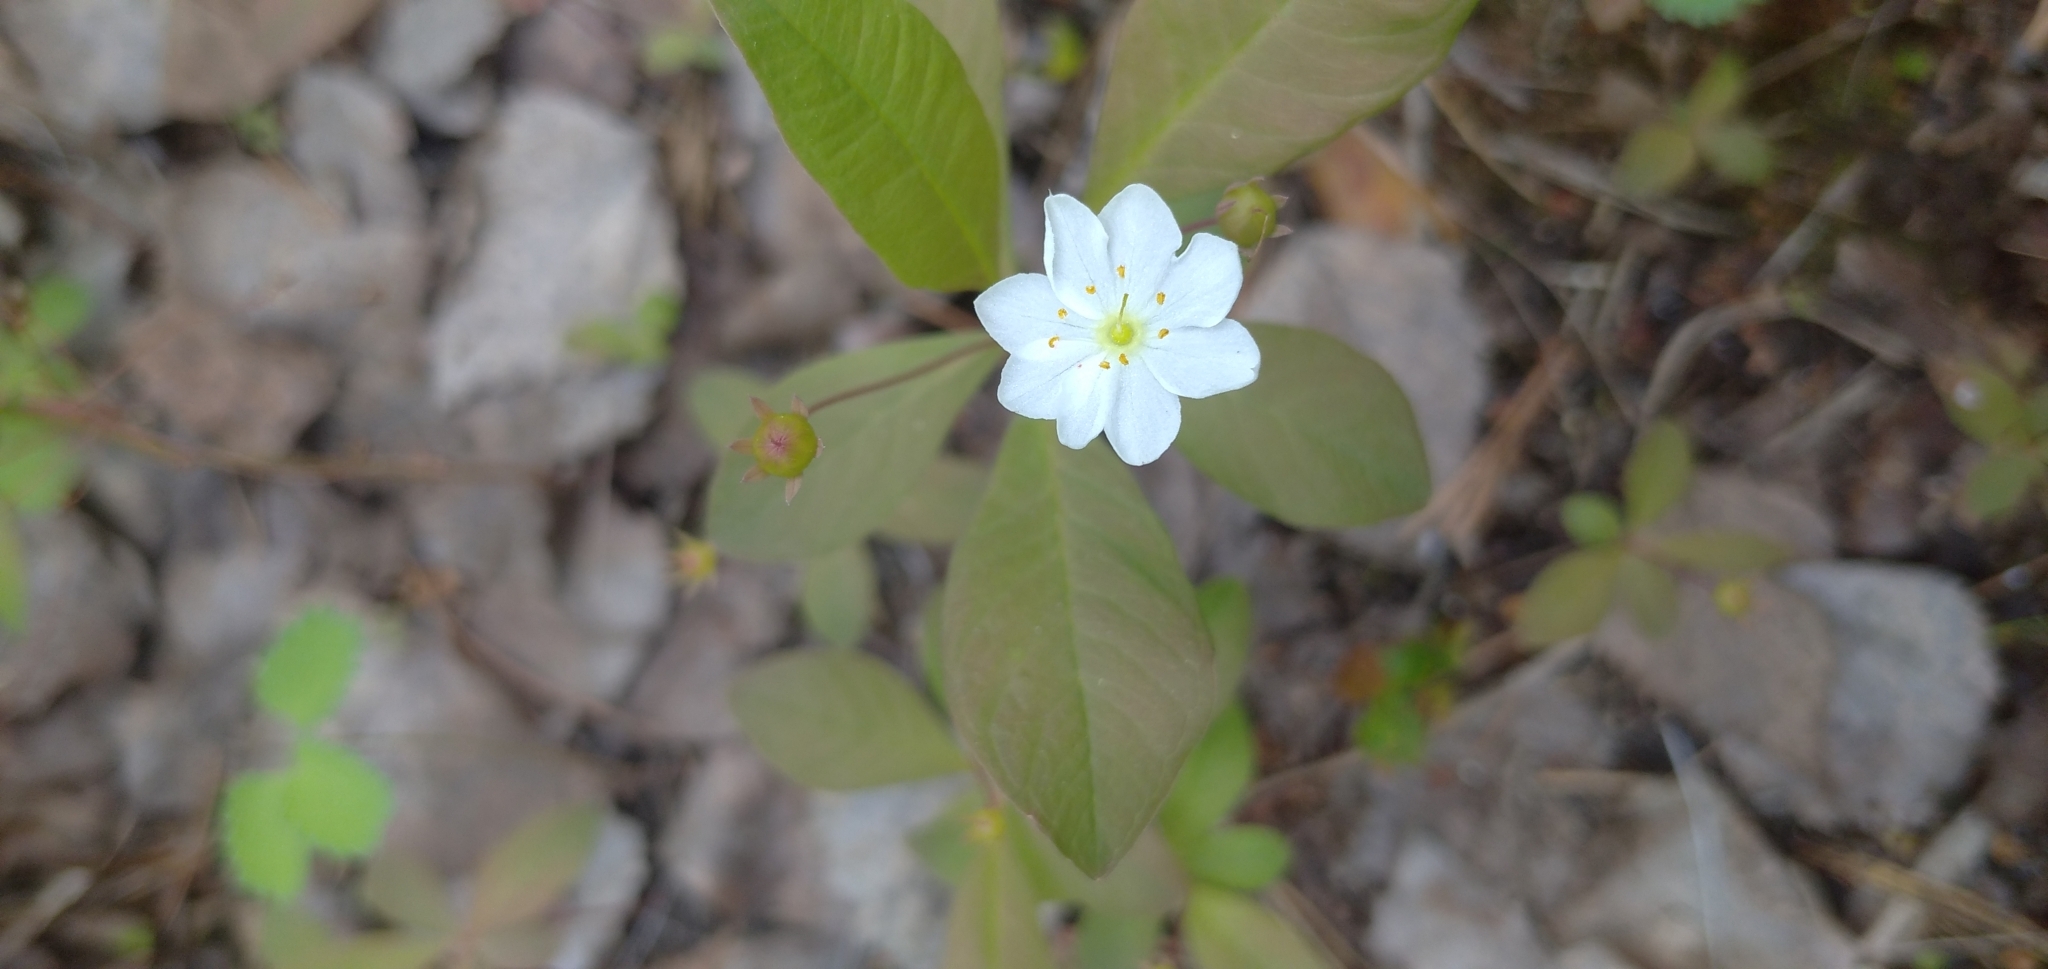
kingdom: Plantae
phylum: Tracheophyta
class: Magnoliopsida
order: Ericales
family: Primulaceae
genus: Lysimachia
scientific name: Lysimachia europaea
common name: Arctic starflower
